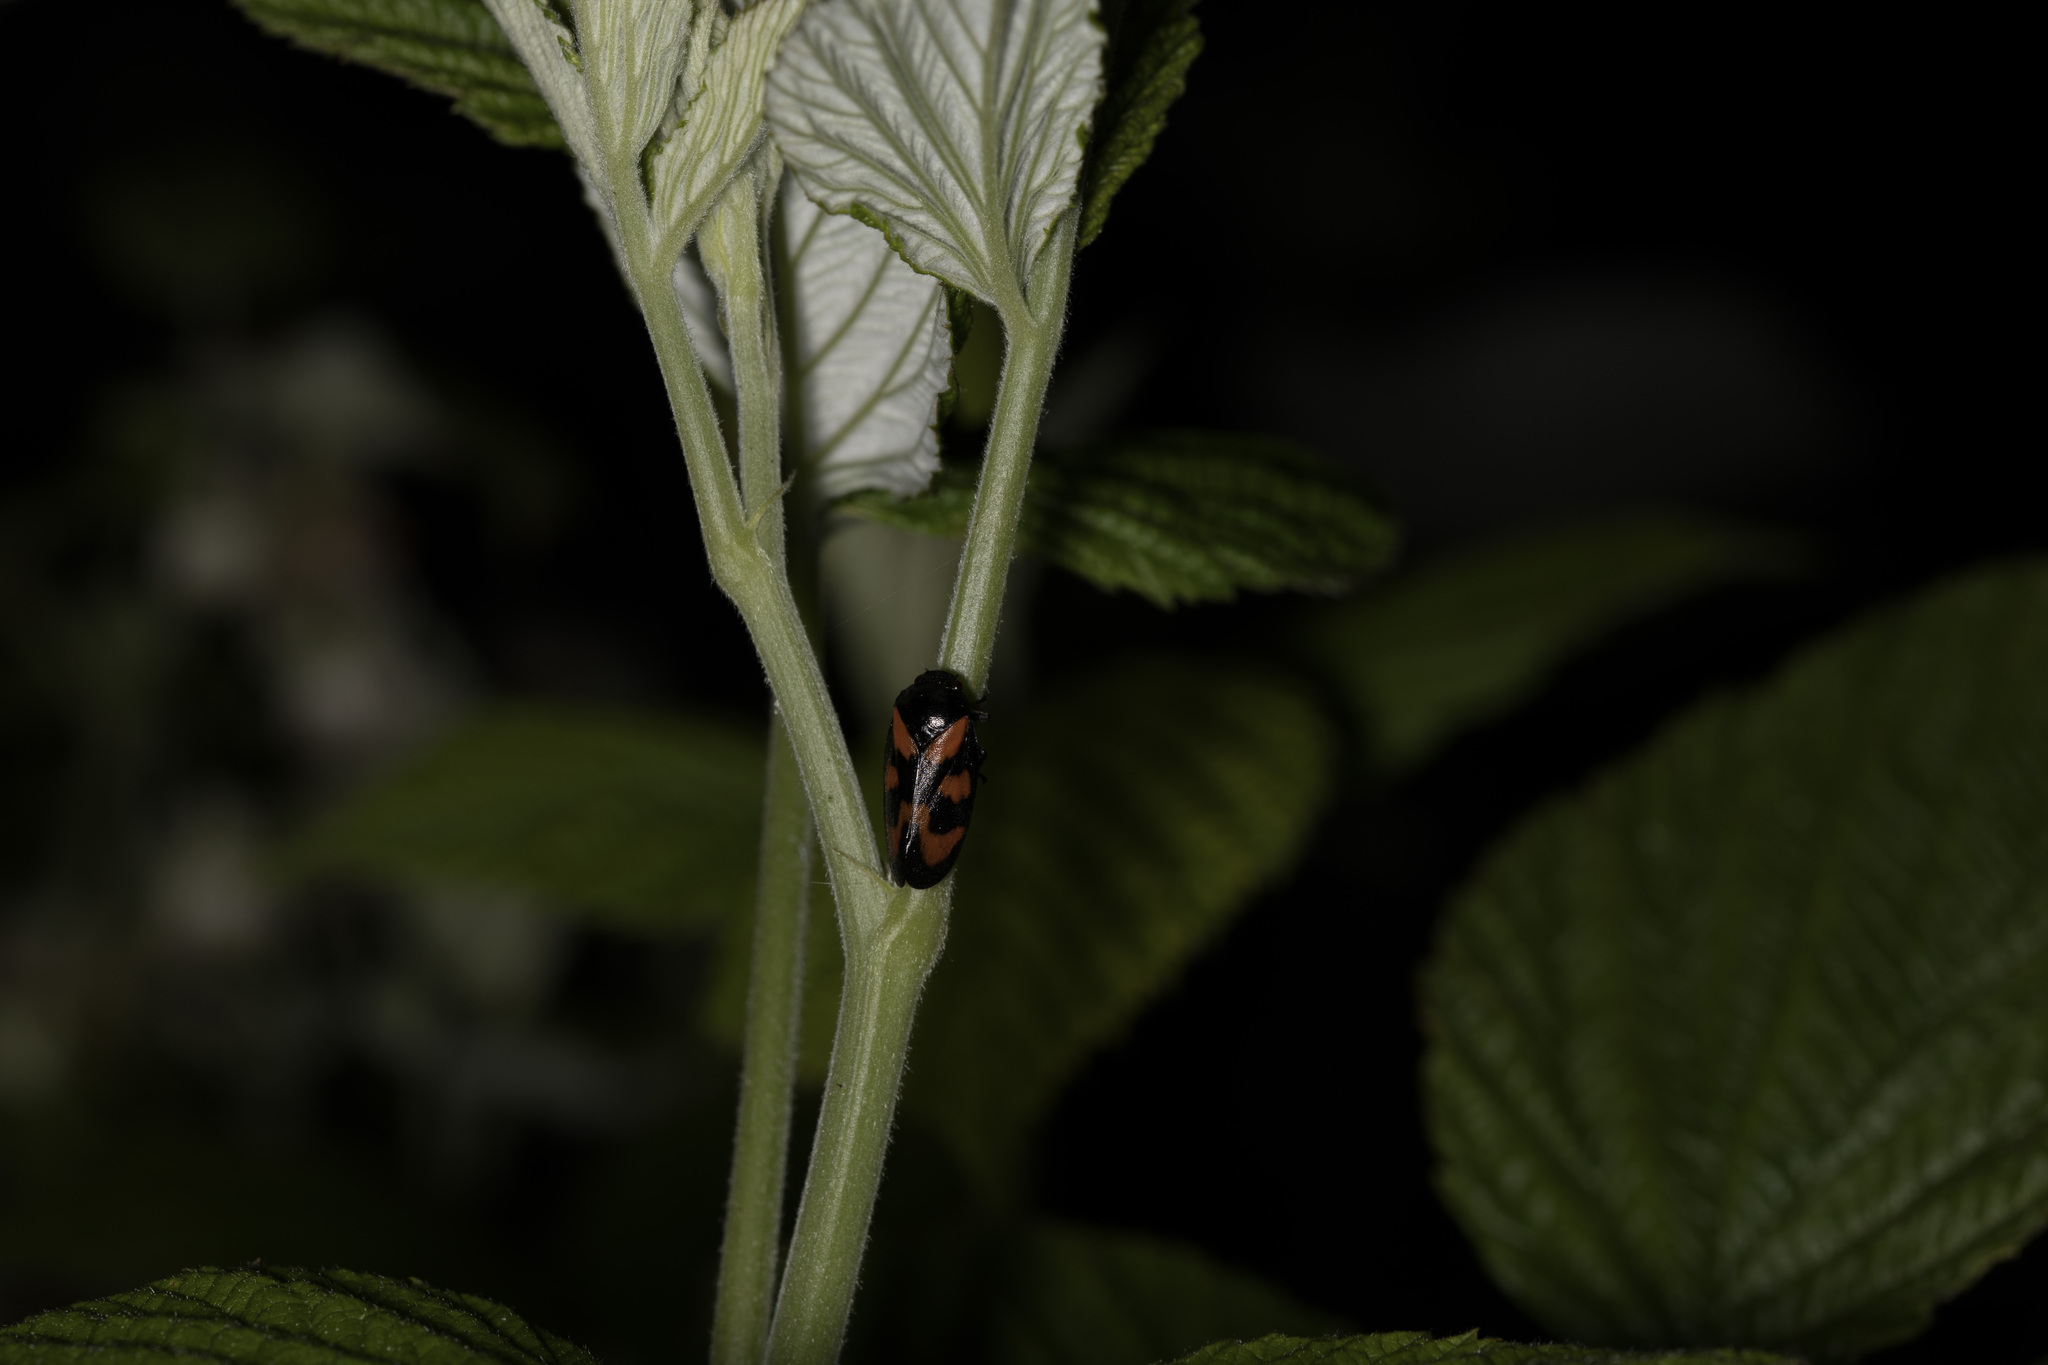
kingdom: Animalia
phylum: Arthropoda
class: Insecta
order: Hemiptera
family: Cercopidae
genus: Cercopis
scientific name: Cercopis vulnerata
